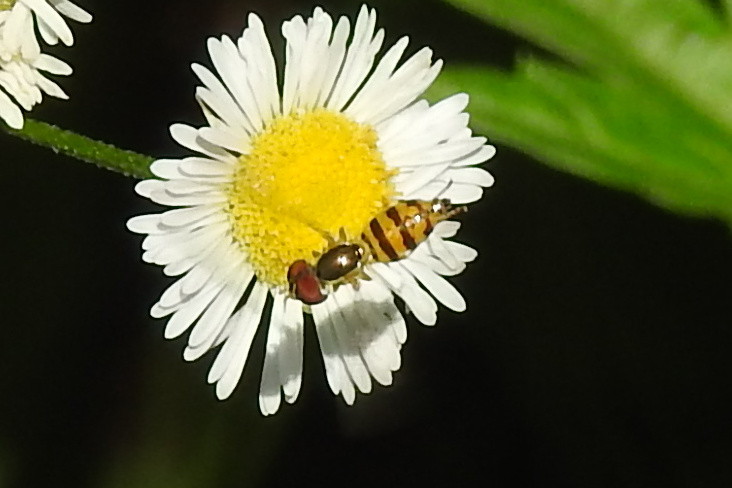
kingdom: Animalia
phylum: Arthropoda
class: Insecta
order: Diptera
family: Syrphidae
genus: Toxomerus
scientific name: Toxomerus geminatus
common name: Eastern calligrapher
